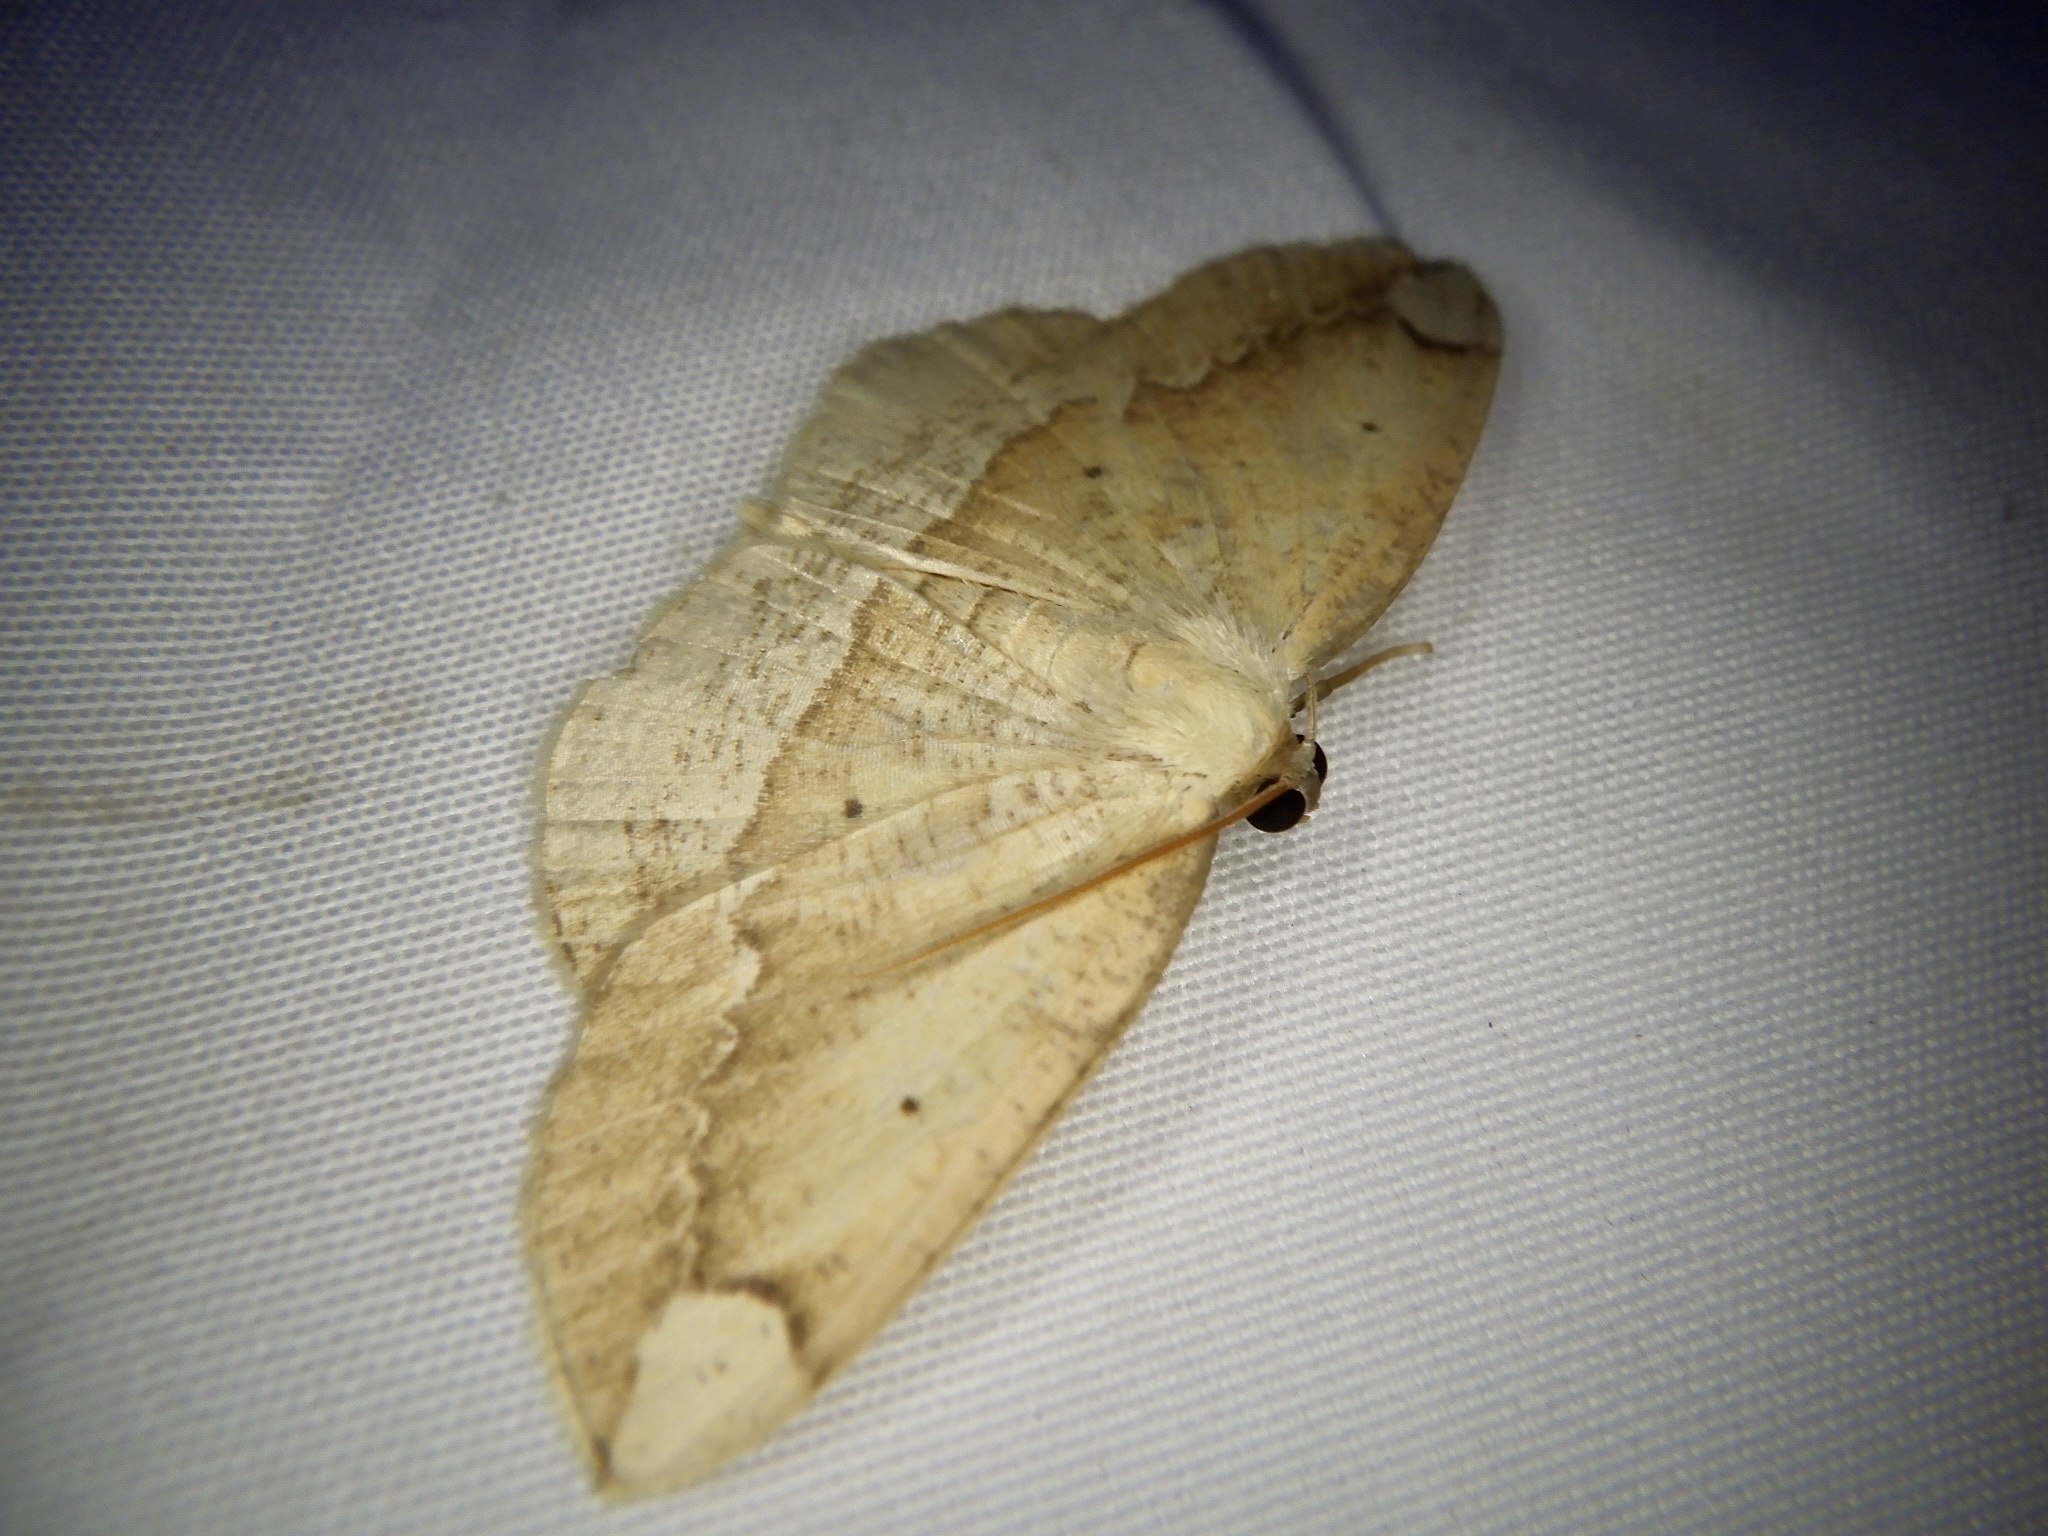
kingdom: Animalia
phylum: Arthropoda
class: Insecta
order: Lepidoptera
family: Geometridae
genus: Platycerota
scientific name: Platycerota incertaria
